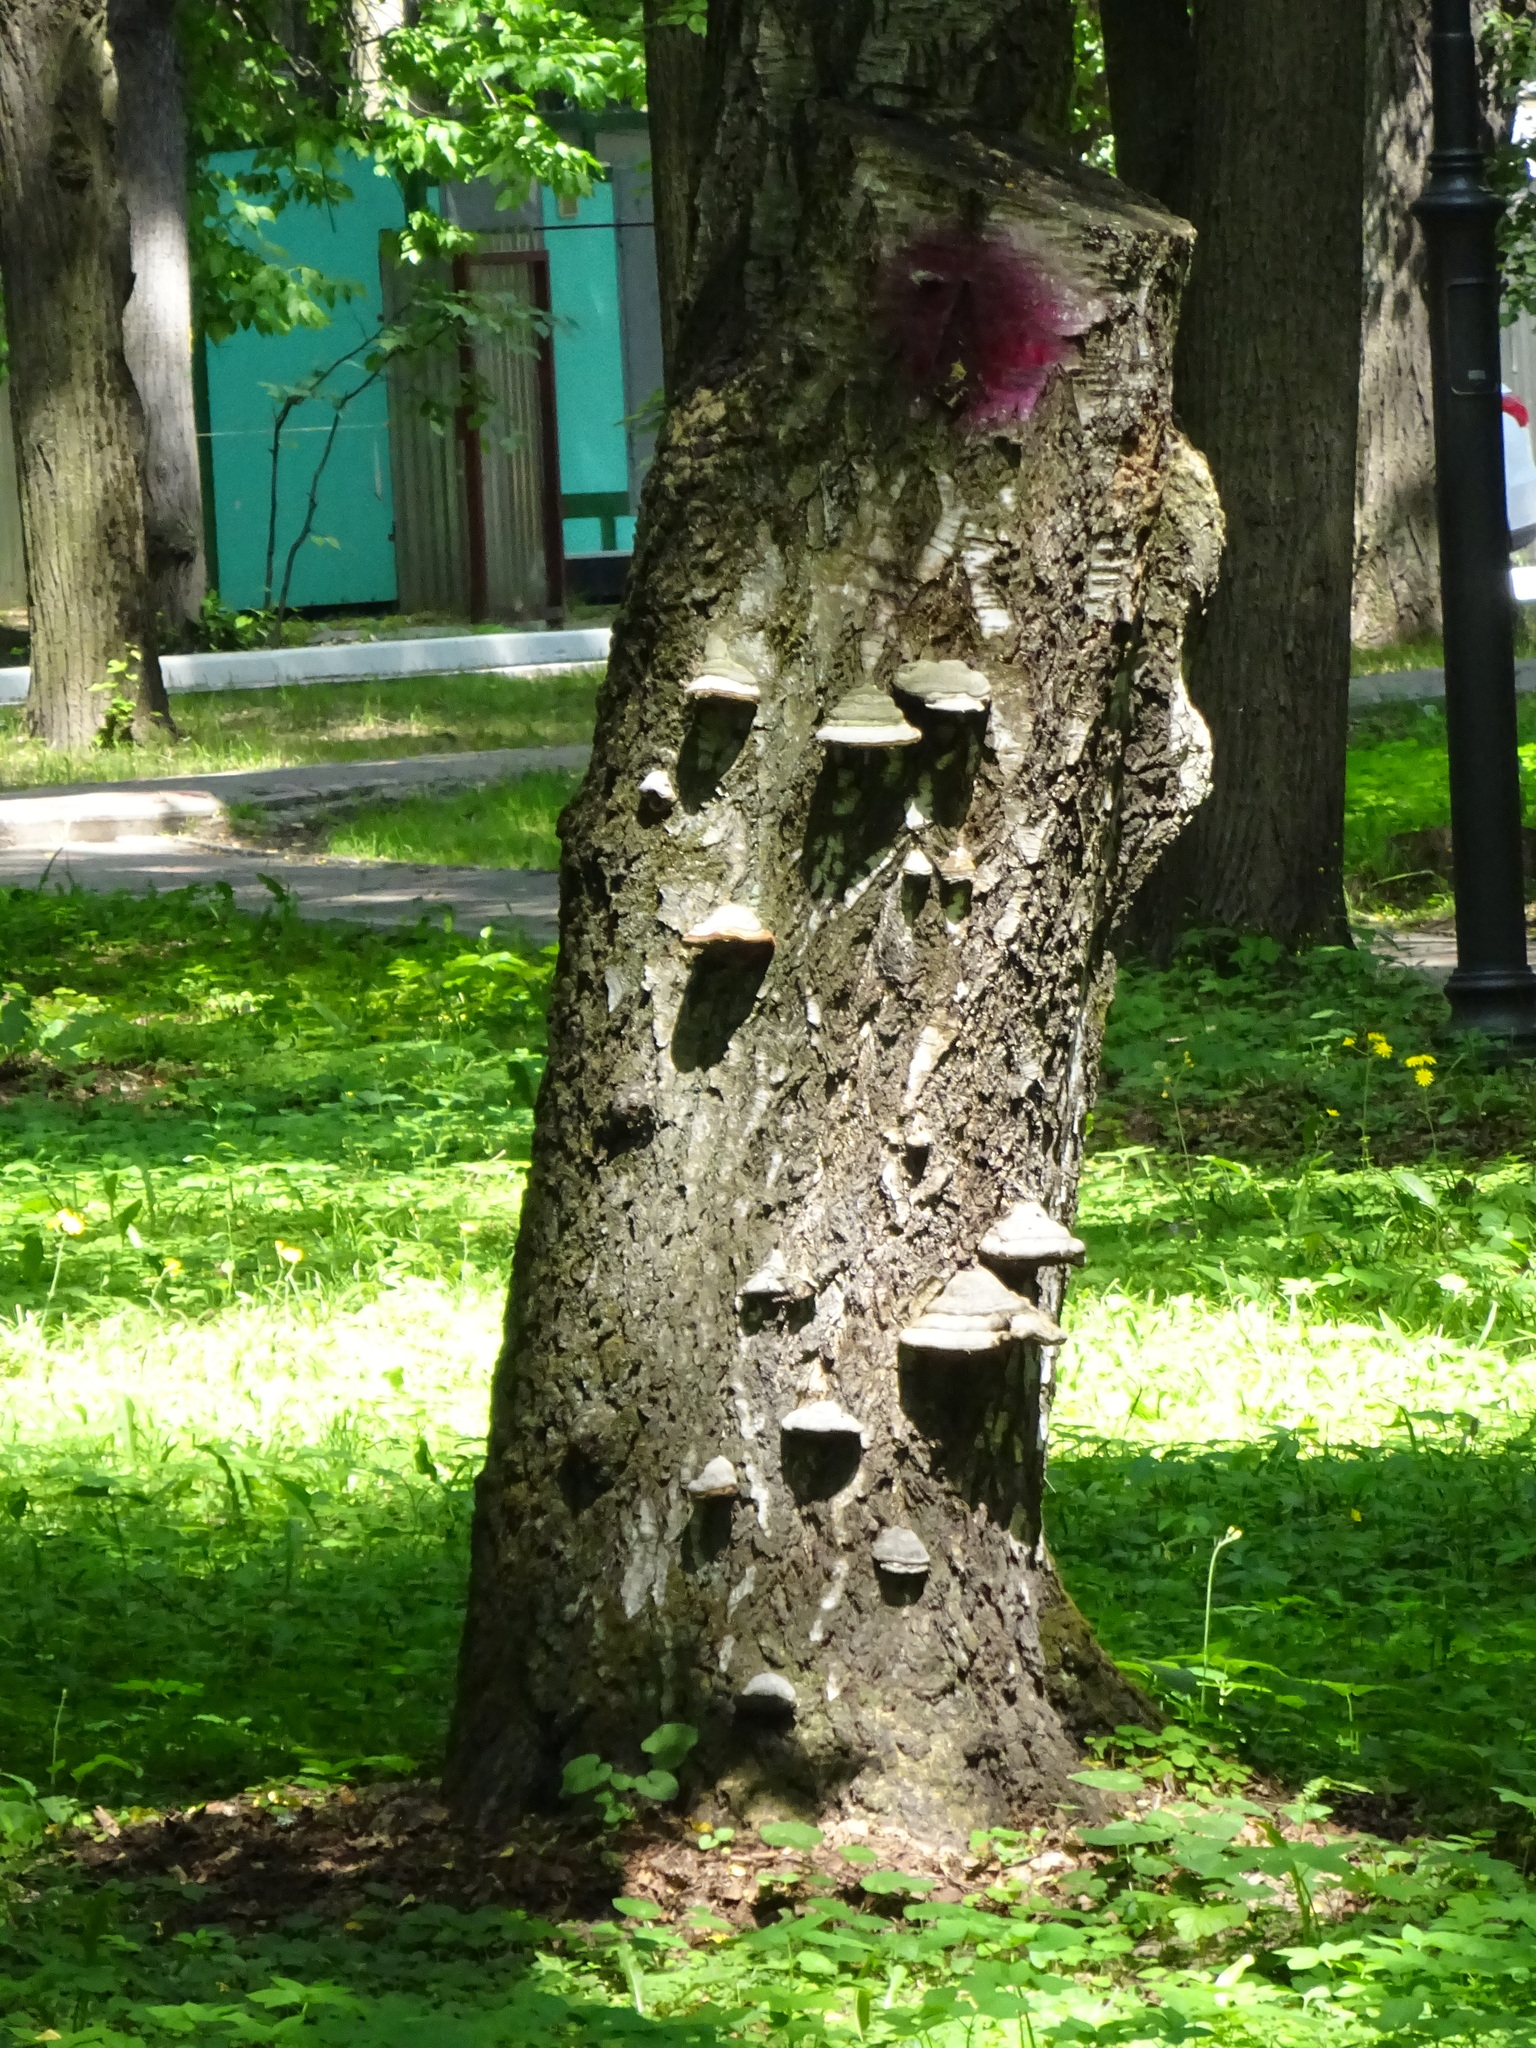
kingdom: Fungi
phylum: Basidiomycota
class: Agaricomycetes
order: Polyporales
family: Polyporaceae
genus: Fomes
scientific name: Fomes fomentarius
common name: Hoof fungus
